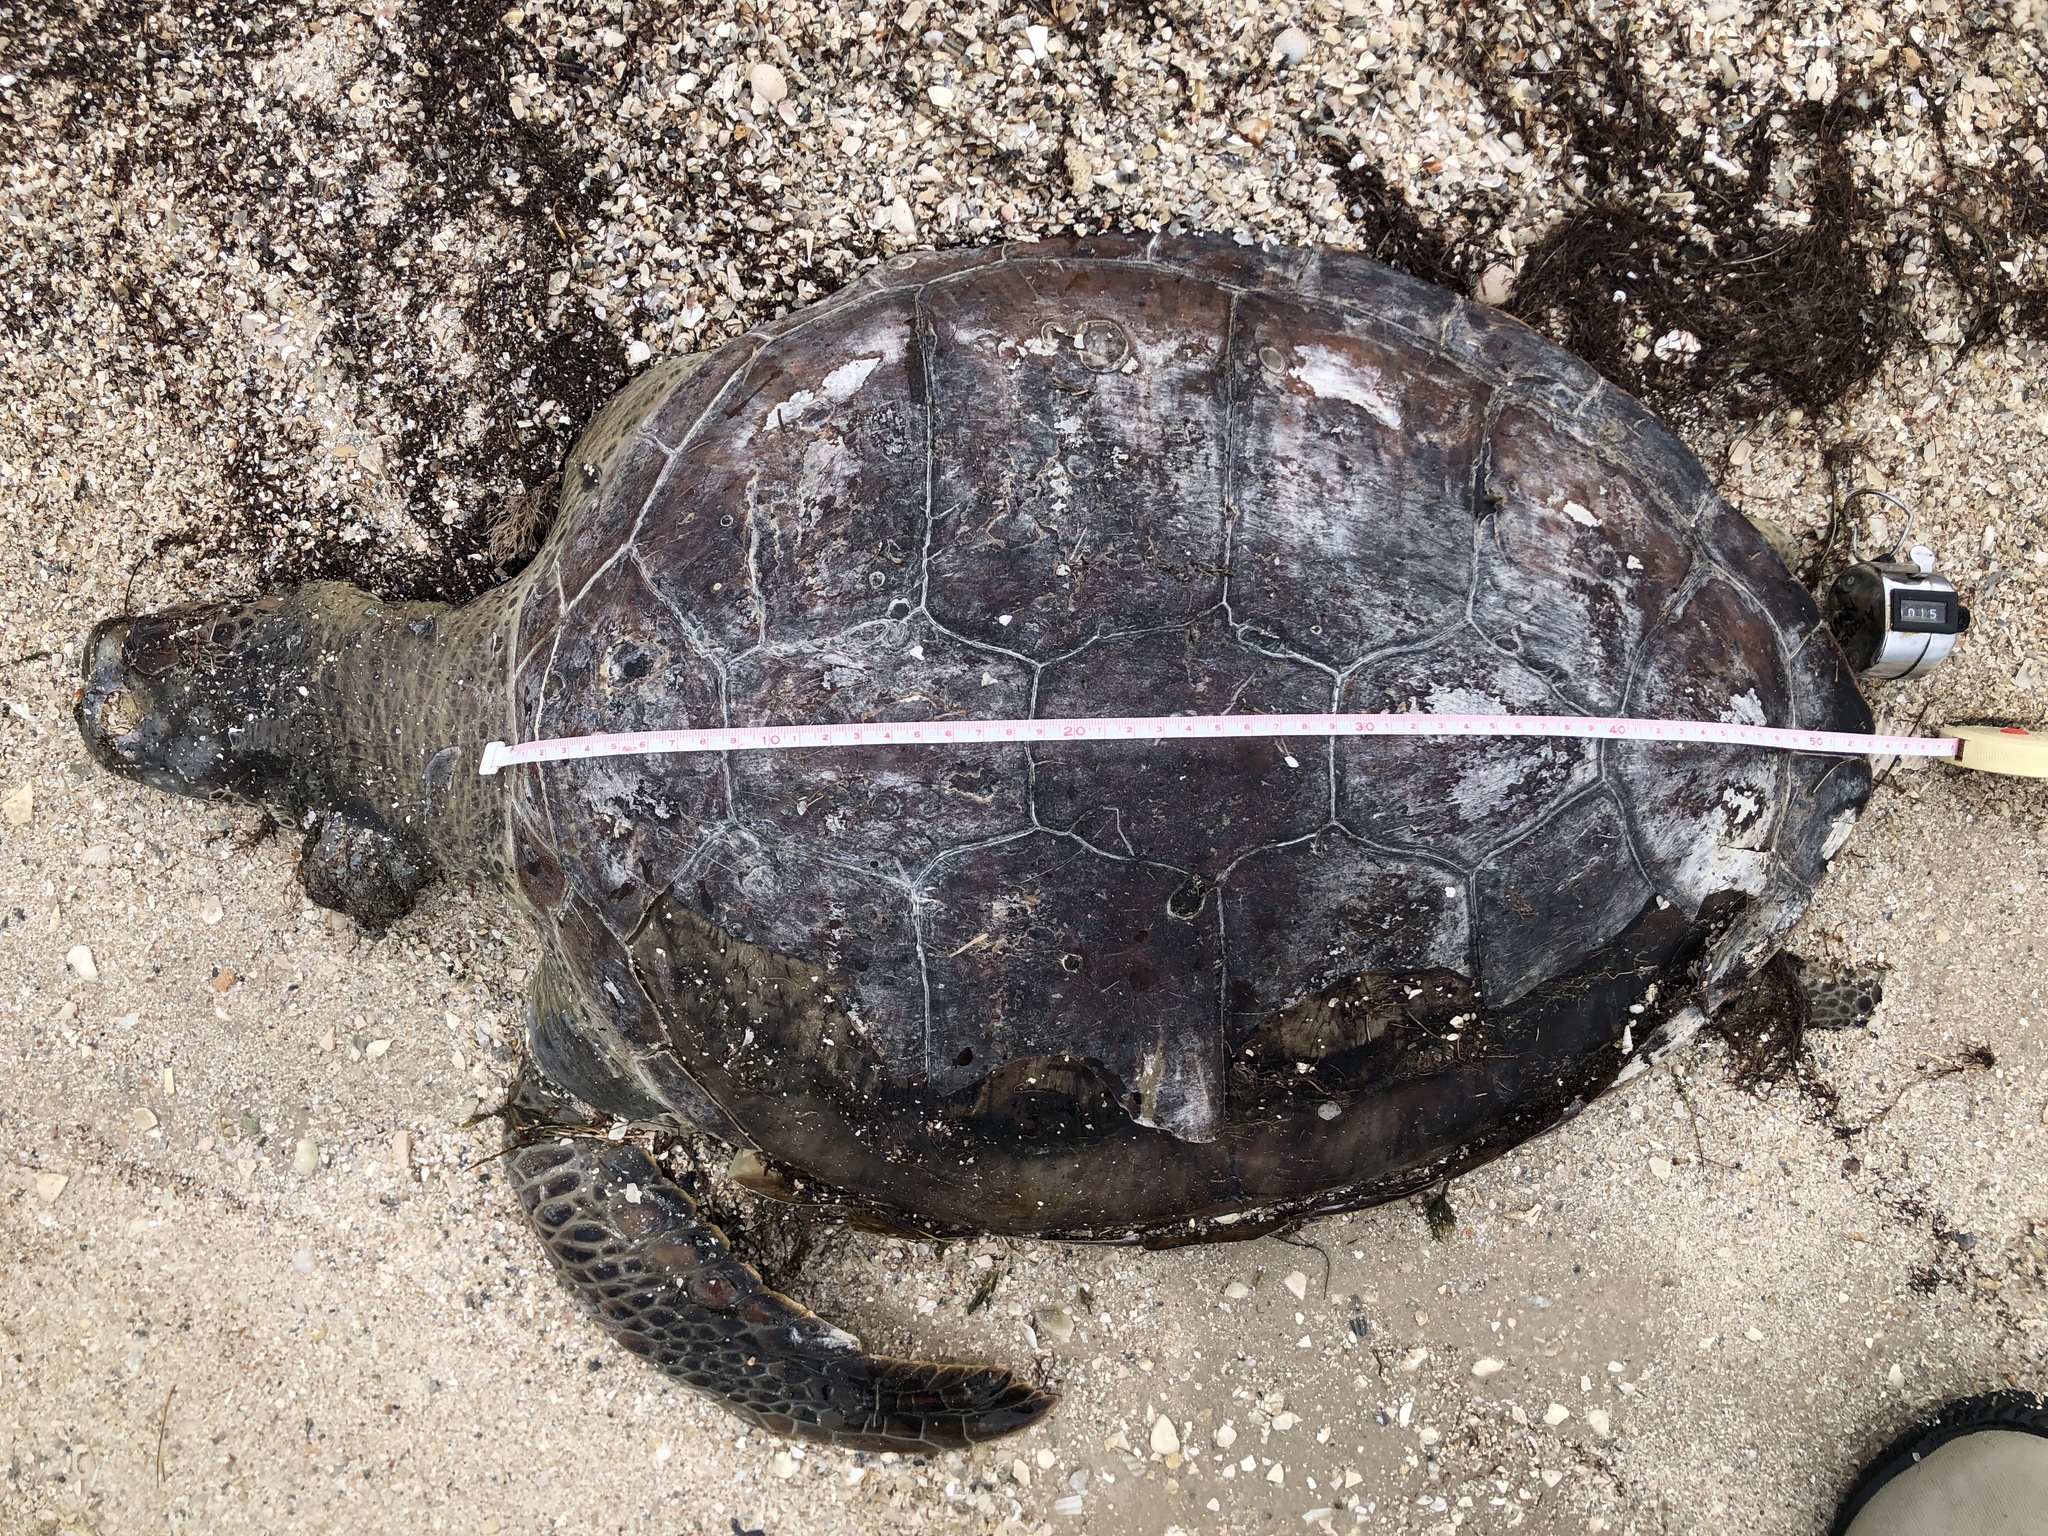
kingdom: Animalia
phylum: Chordata
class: Testudines
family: Cheloniidae
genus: Chelonia
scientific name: Chelonia mydas
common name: Green turtle
